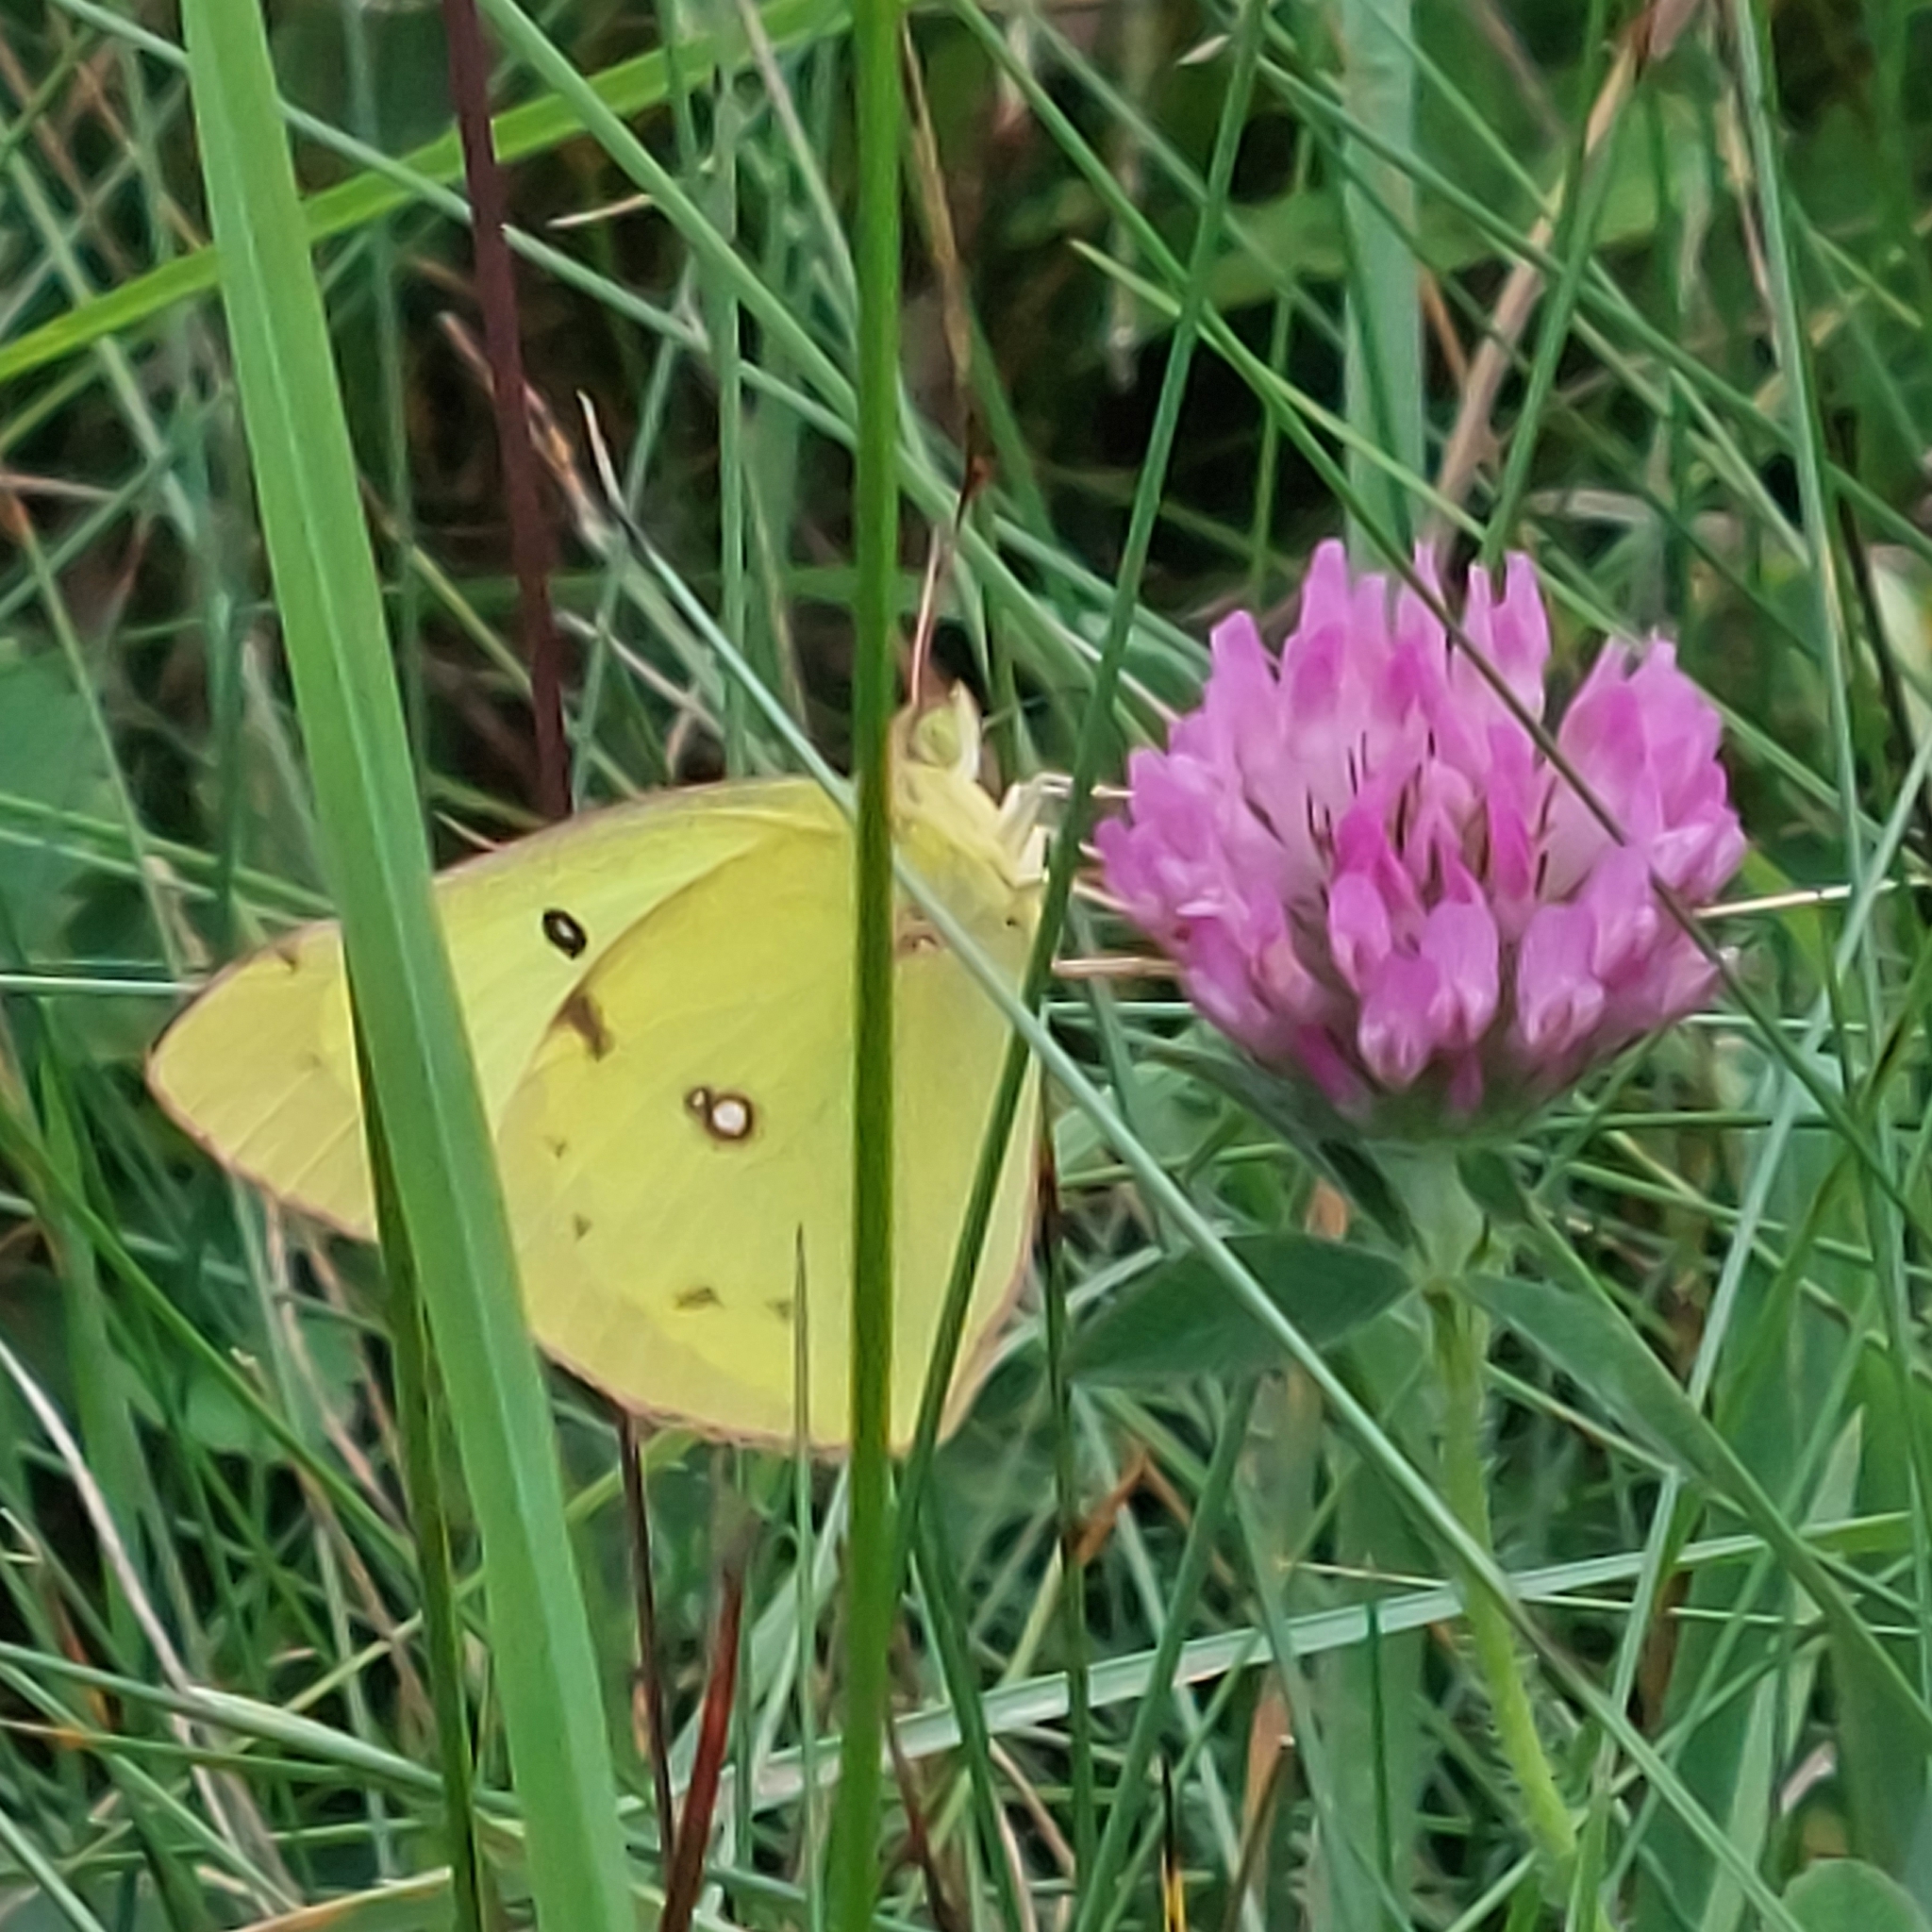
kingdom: Animalia
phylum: Arthropoda
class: Insecta
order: Lepidoptera
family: Pieridae
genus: Colias
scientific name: Colias philodice
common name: Clouded sulphur
